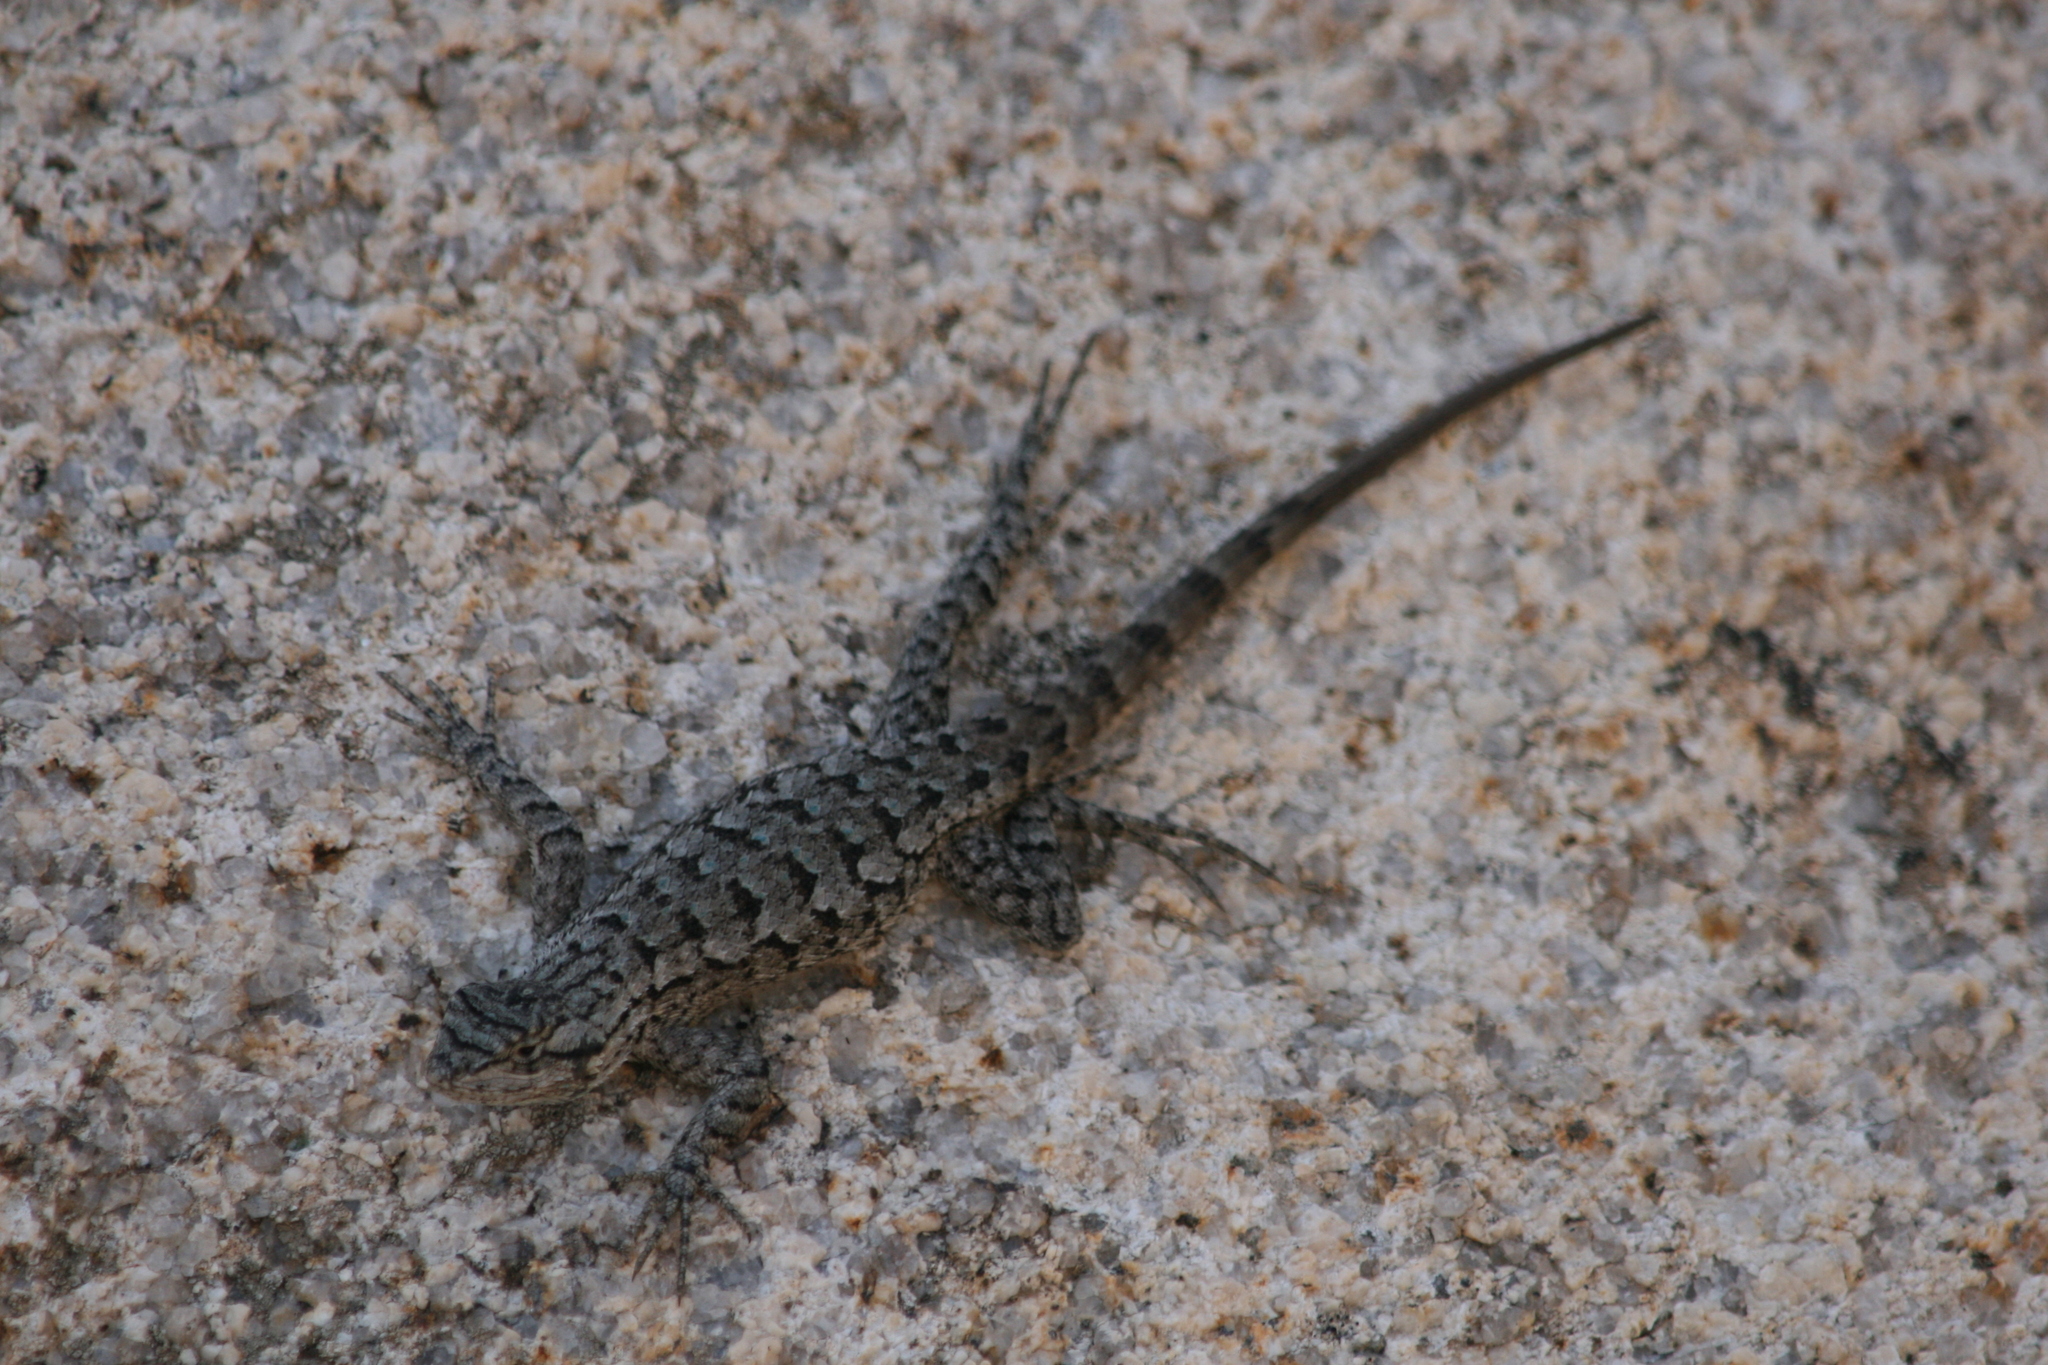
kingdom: Animalia
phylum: Chordata
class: Squamata
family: Phrynosomatidae
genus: Sceloporus
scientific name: Sceloporus occidentalis
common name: Western fence lizard
